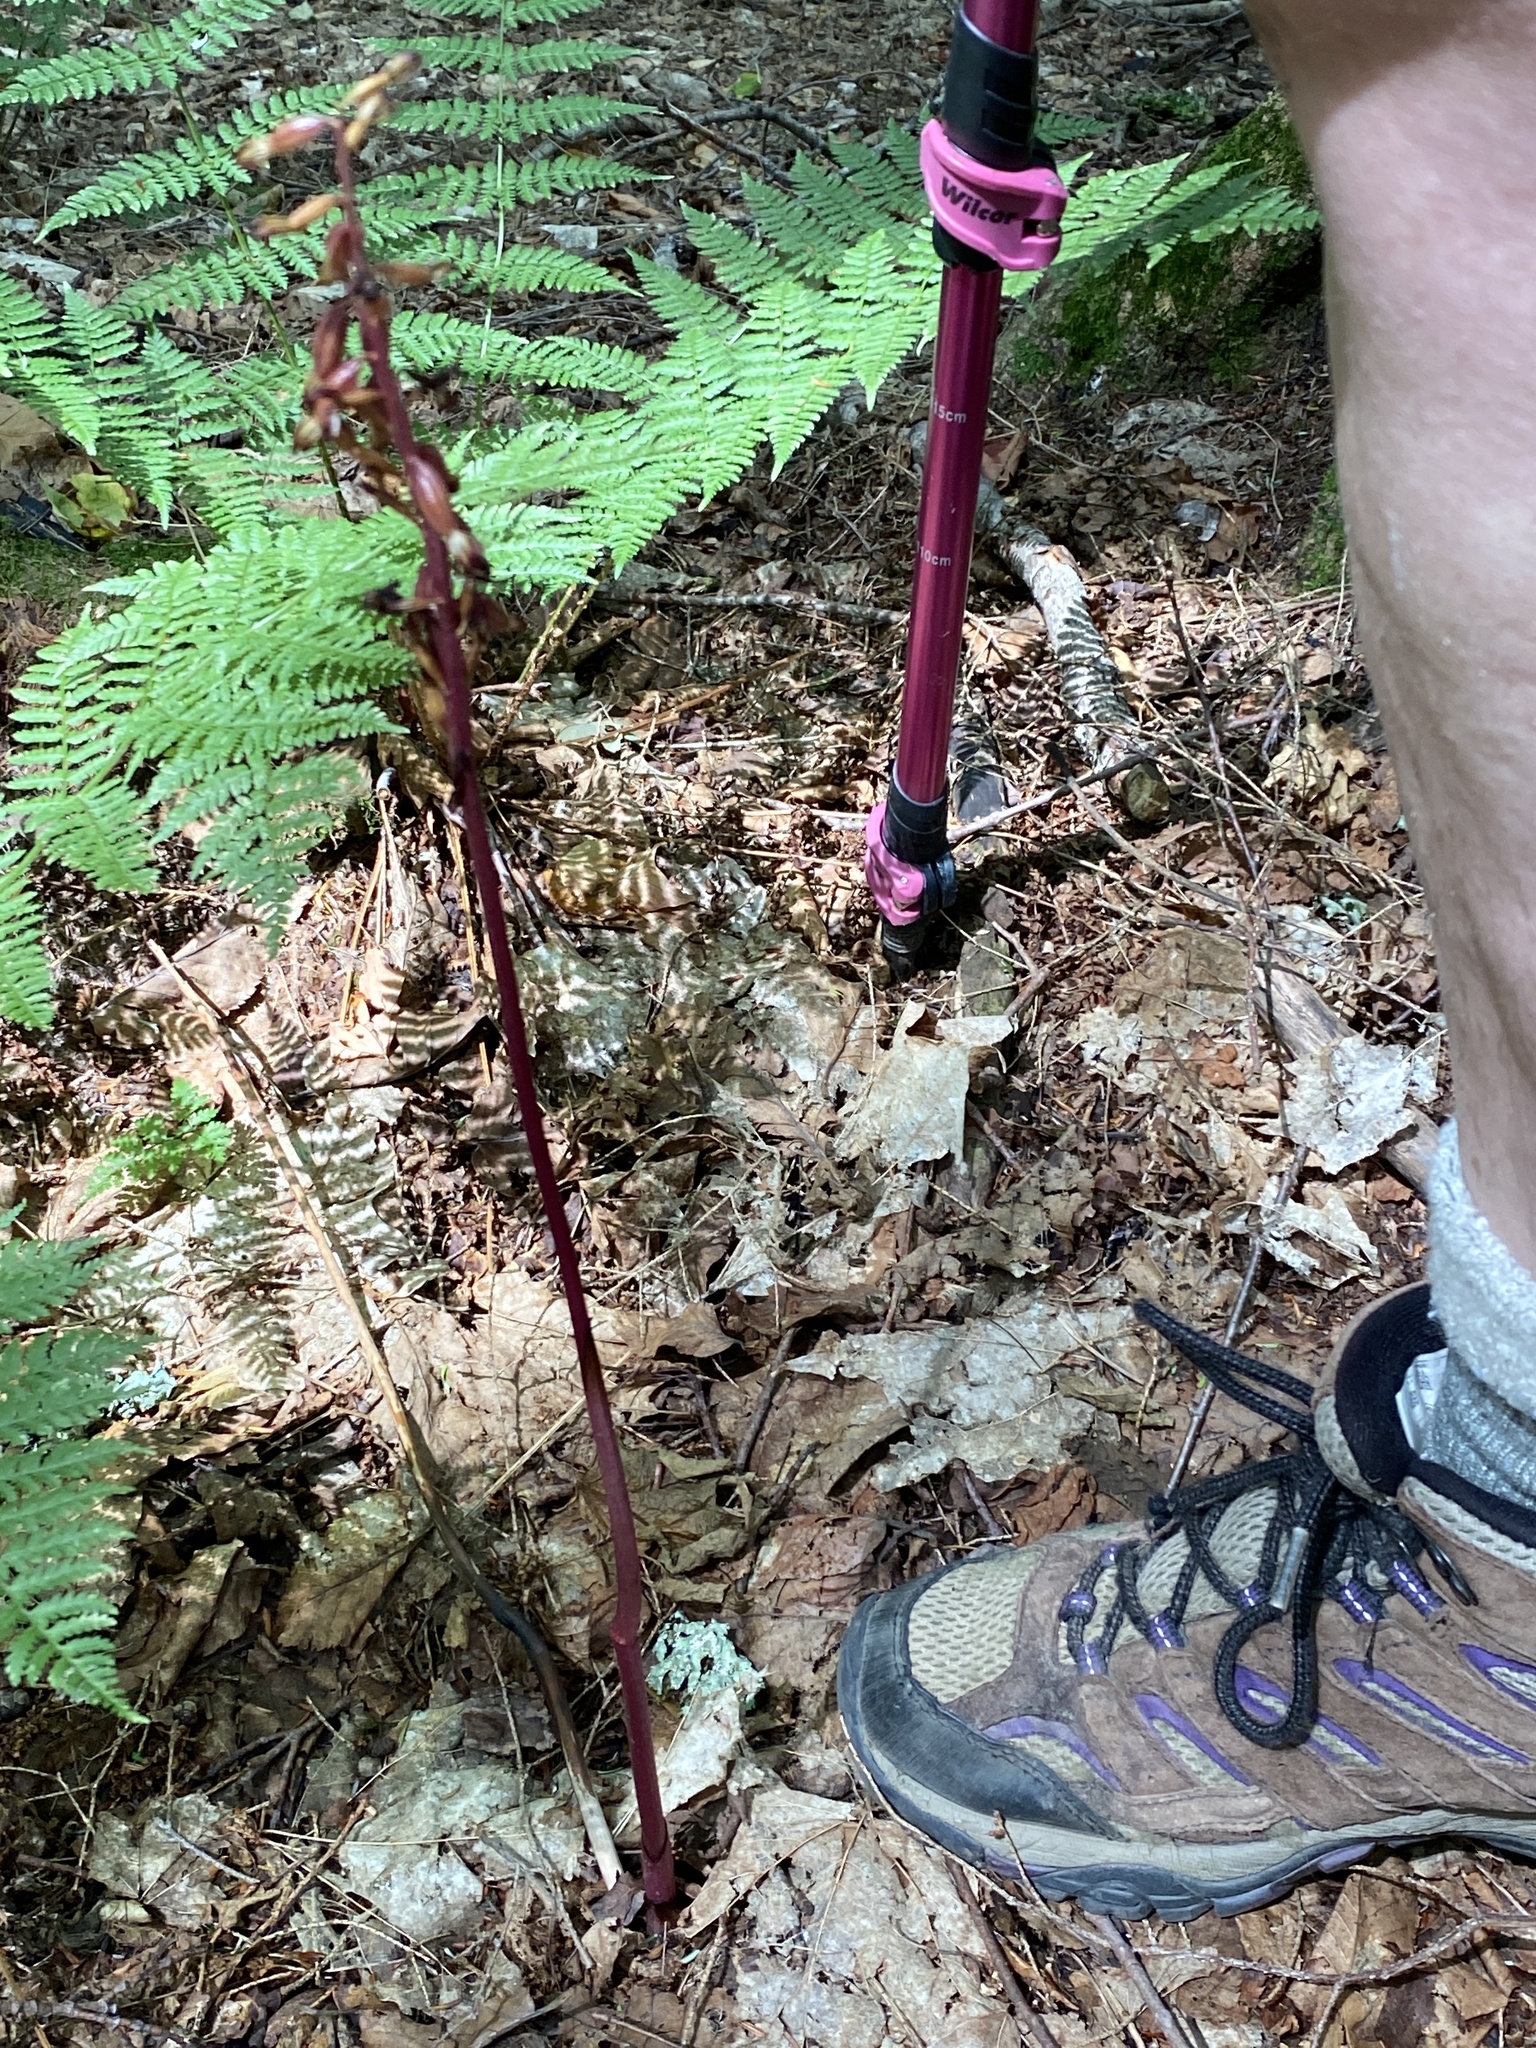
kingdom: Plantae
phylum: Tracheophyta
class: Liliopsida
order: Asparagales
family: Orchidaceae
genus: Corallorhiza
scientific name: Corallorhiza maculata
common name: Spotted coralroot
